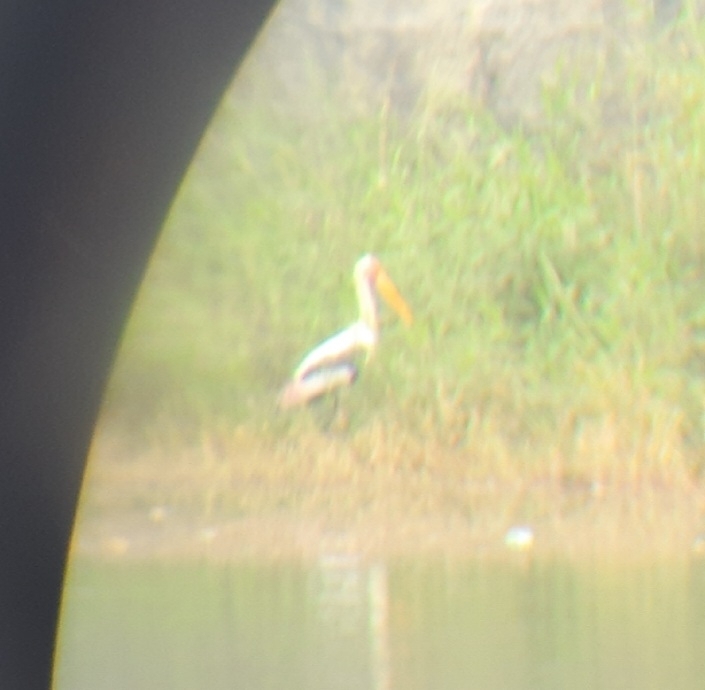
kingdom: Animalia
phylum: Chordata
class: Aves
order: Ciconiiformes
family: Ciconiidae
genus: Mycteria
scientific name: Mycteria leucocephala
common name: Painted stork
